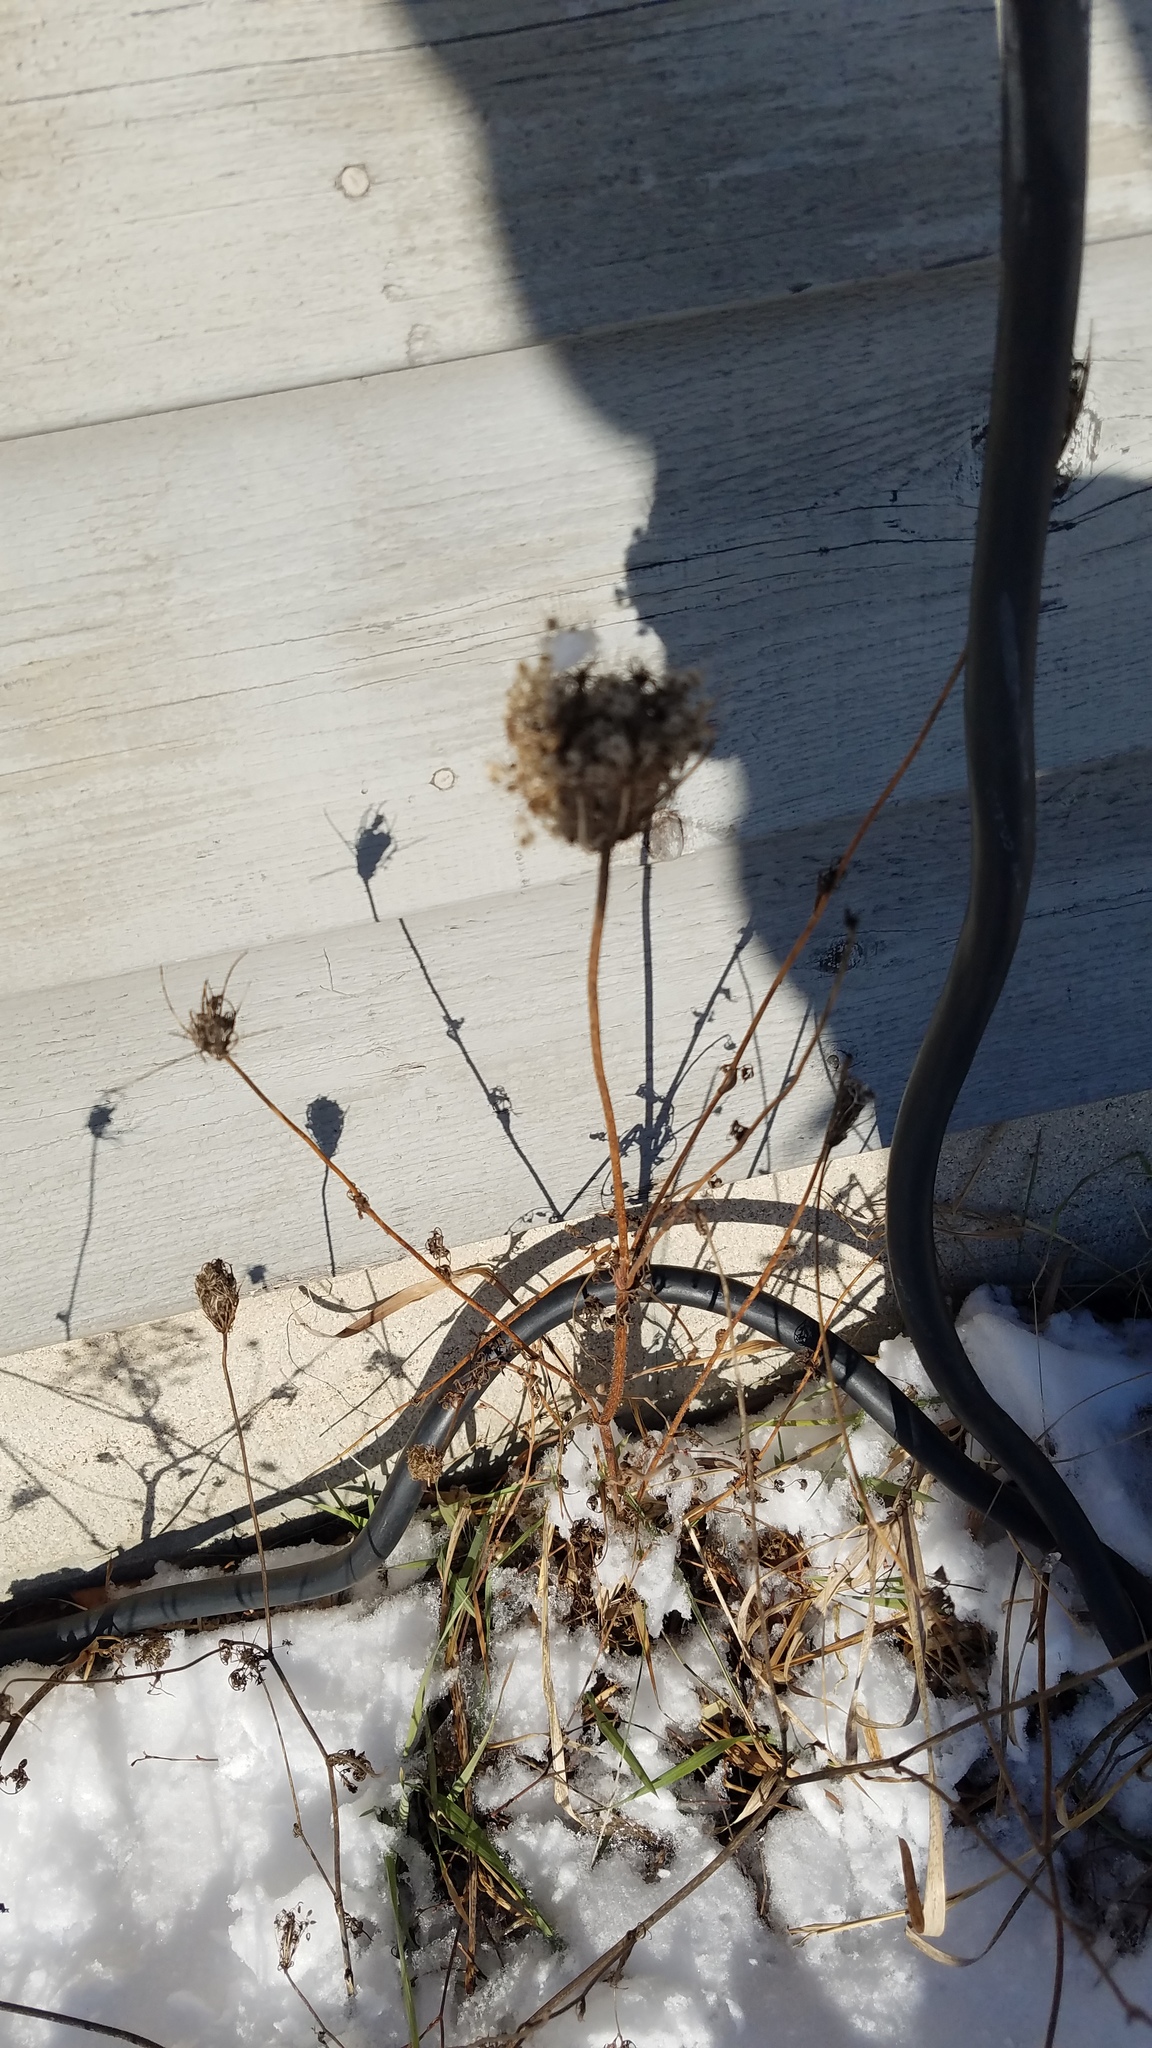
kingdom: Plantae
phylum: Tracheophyta
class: Magnoliopsida
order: Apiales
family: Apiaceae
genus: Daucus
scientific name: Daucus carota
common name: Wild carrot
